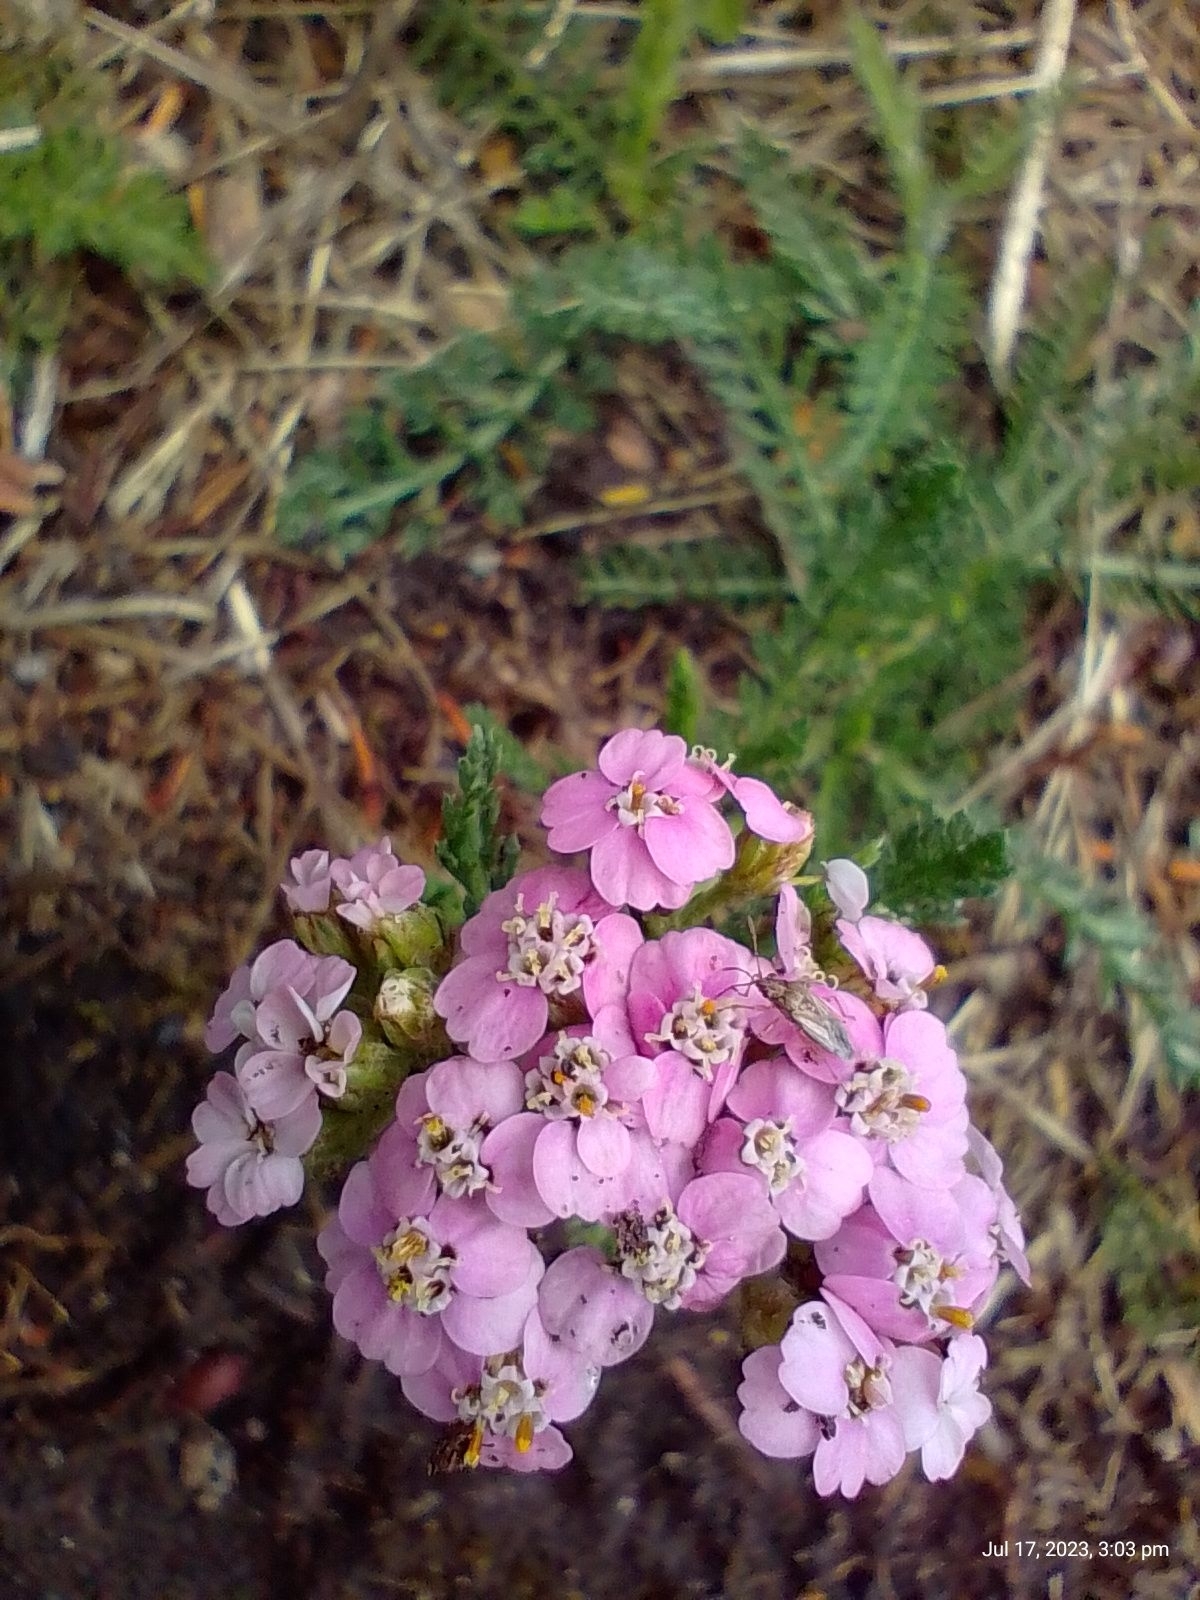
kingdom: Plantae
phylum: Tracheophyta
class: Magnoliopsida
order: Asterales
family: Asteraceae
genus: Achillea
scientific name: Achillea millefolium
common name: Yarrow
